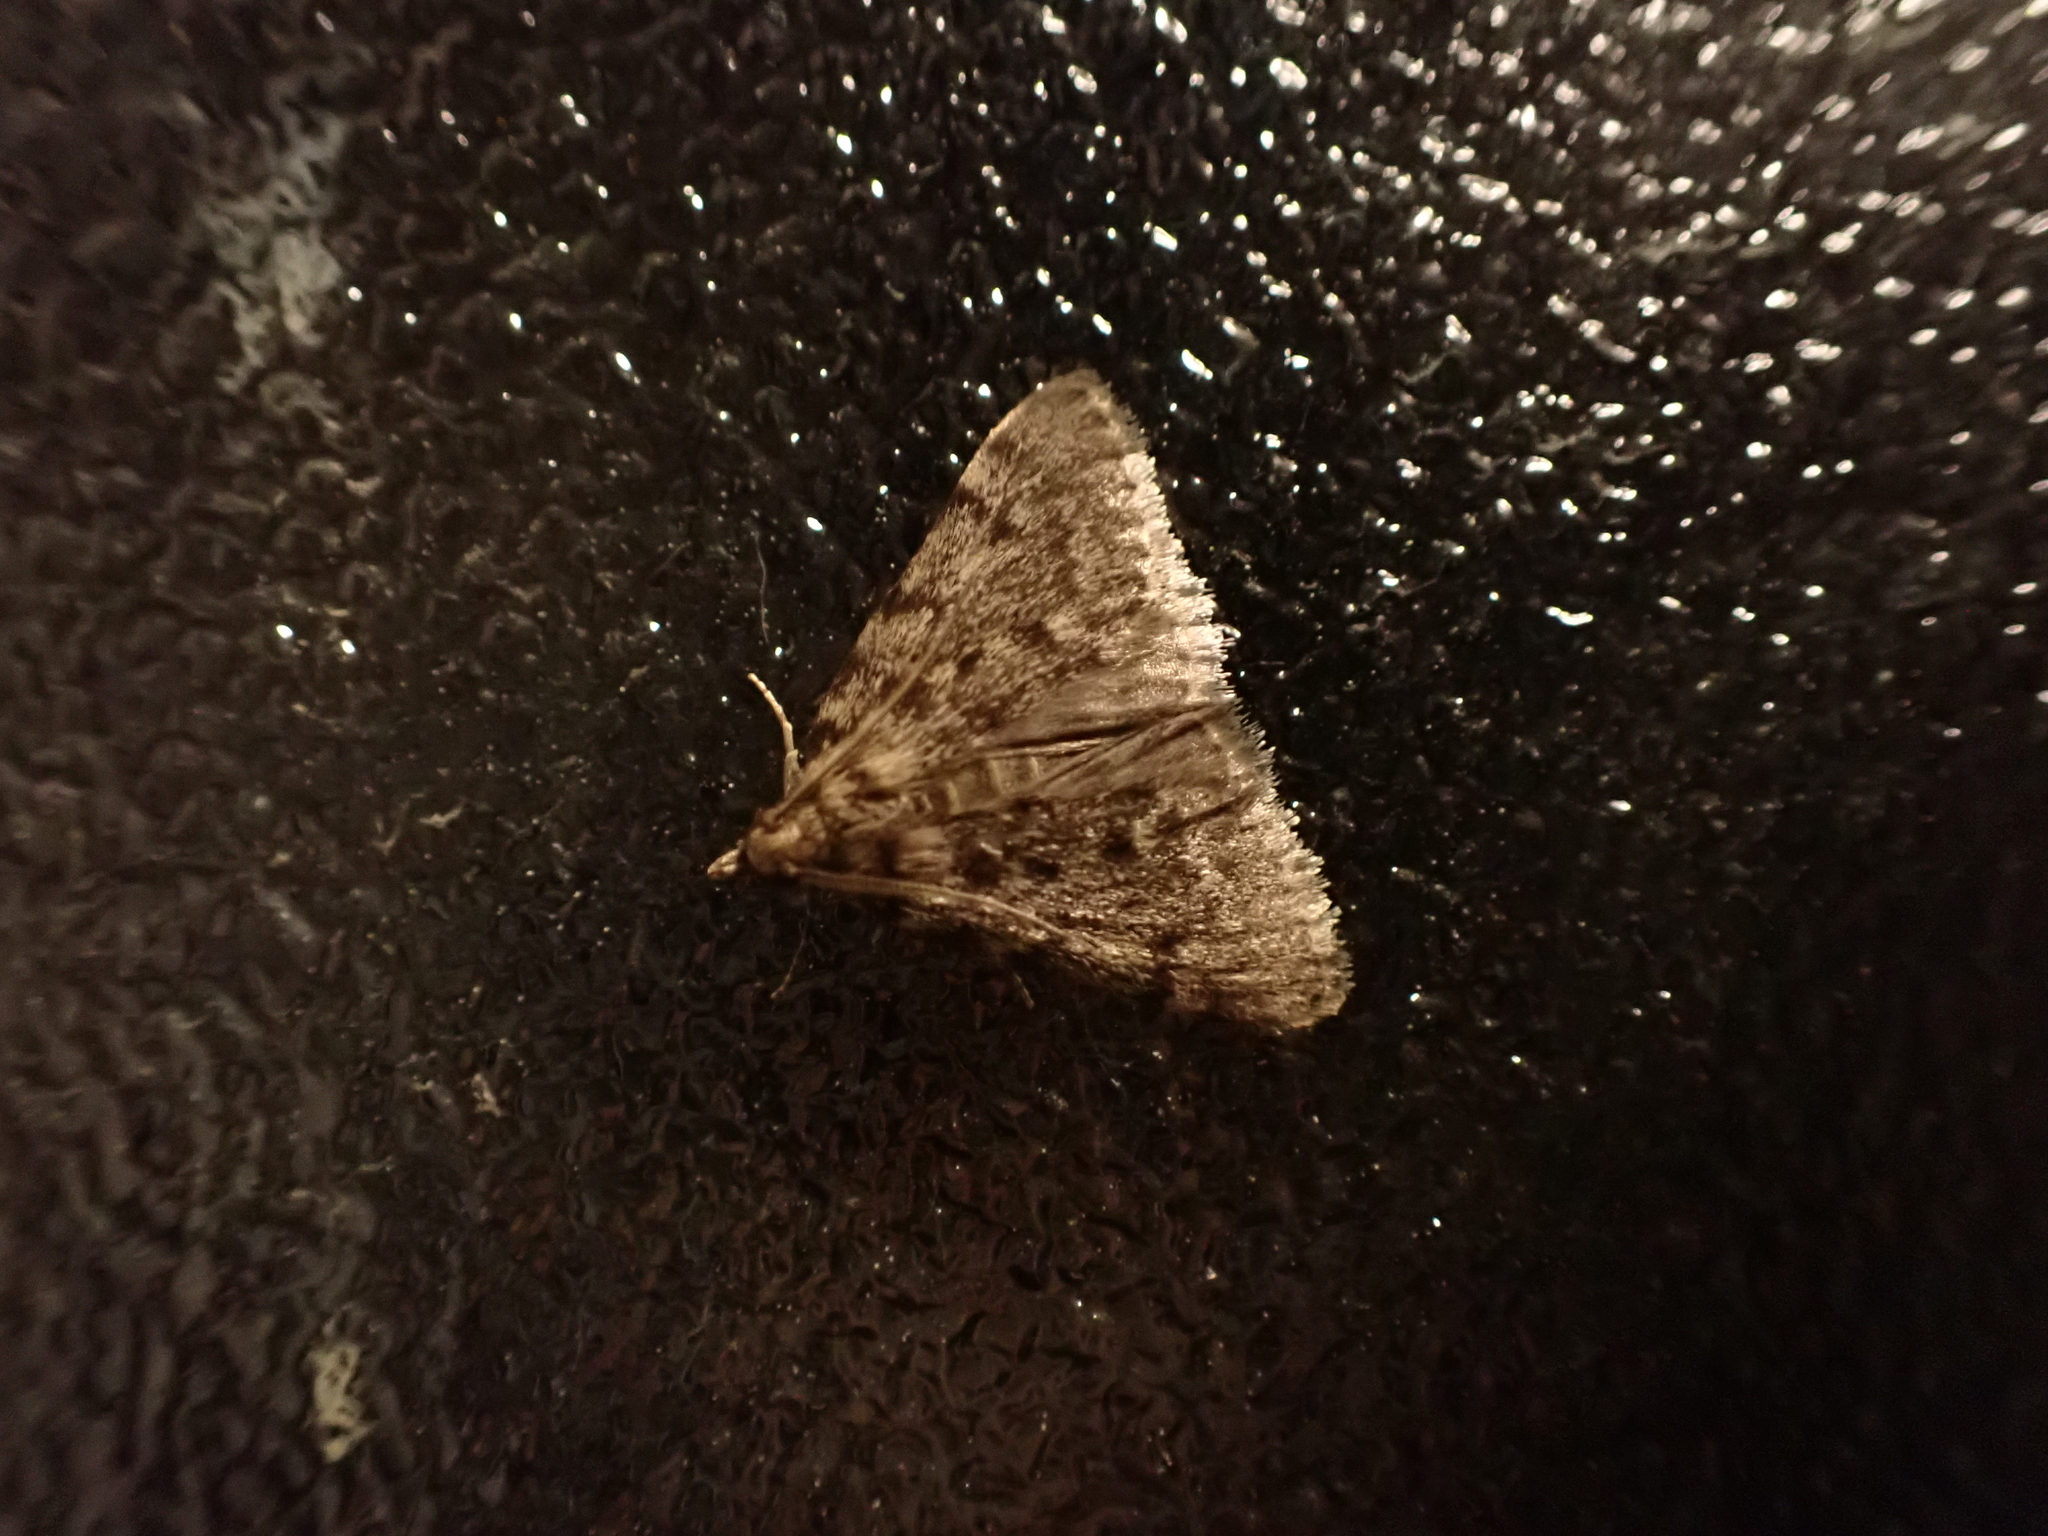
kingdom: Animalia
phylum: Arthropoda
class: Insecta
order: Lepidoptera
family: Pyralidae
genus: Aglossa
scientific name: Aglossa pinguinalis
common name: Large tabby
